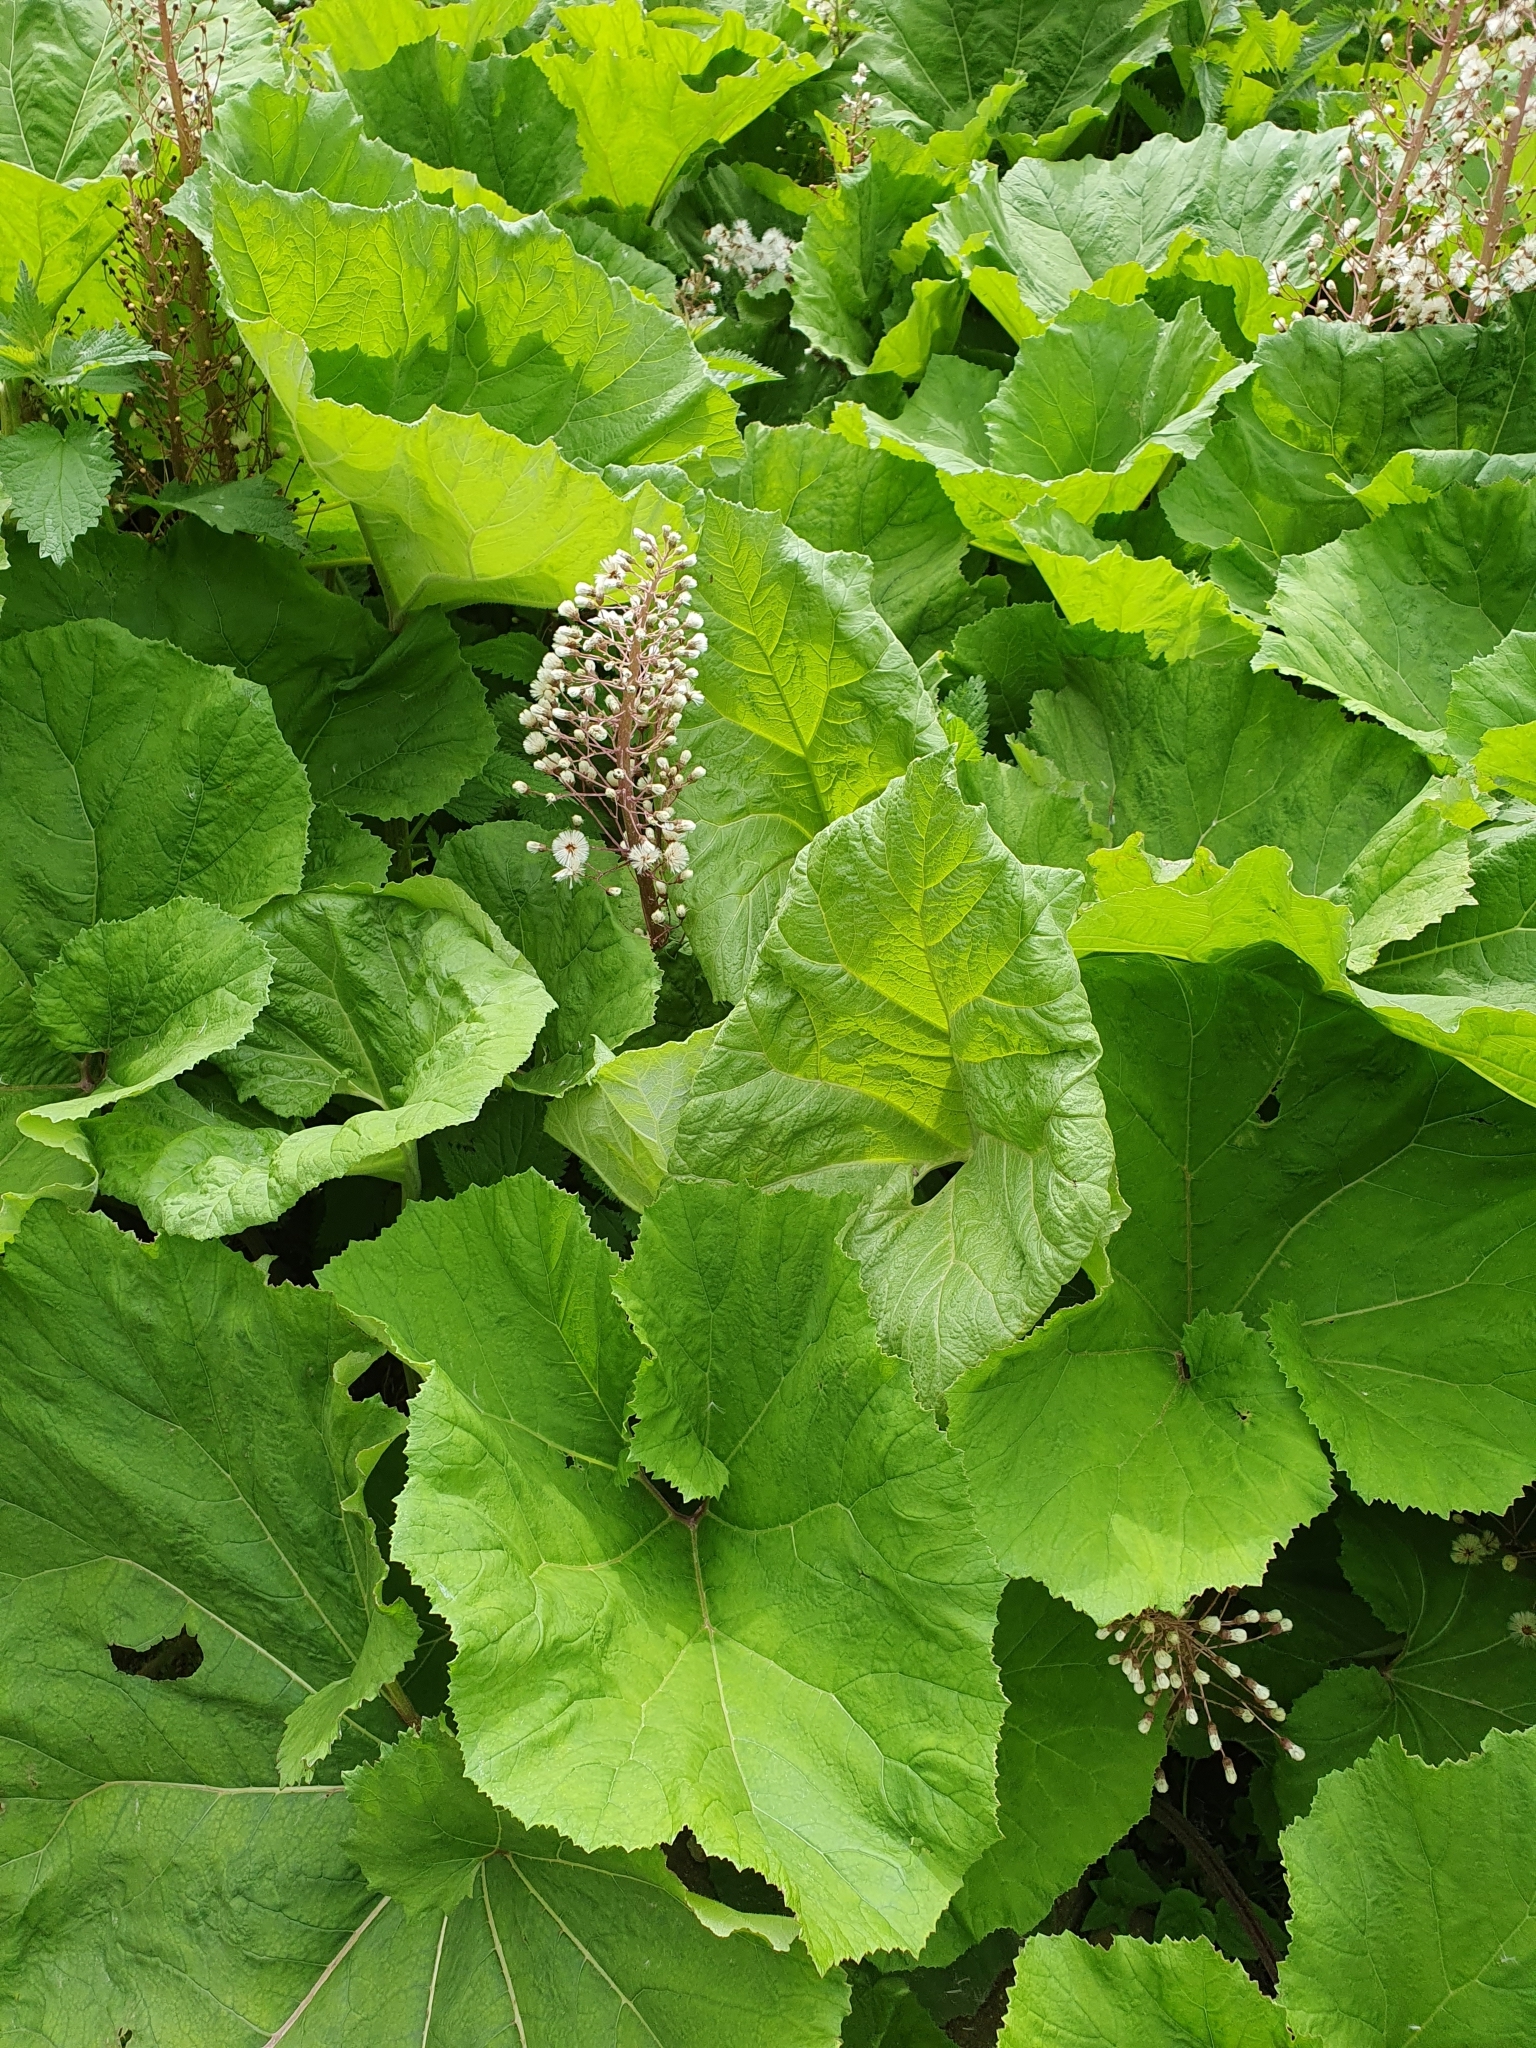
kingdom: Plantae
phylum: Tracheophyta
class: Magnoliopsida
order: Asterales
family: Asteraceae
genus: Petasites
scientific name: Petasites hybridus
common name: Butterbur
